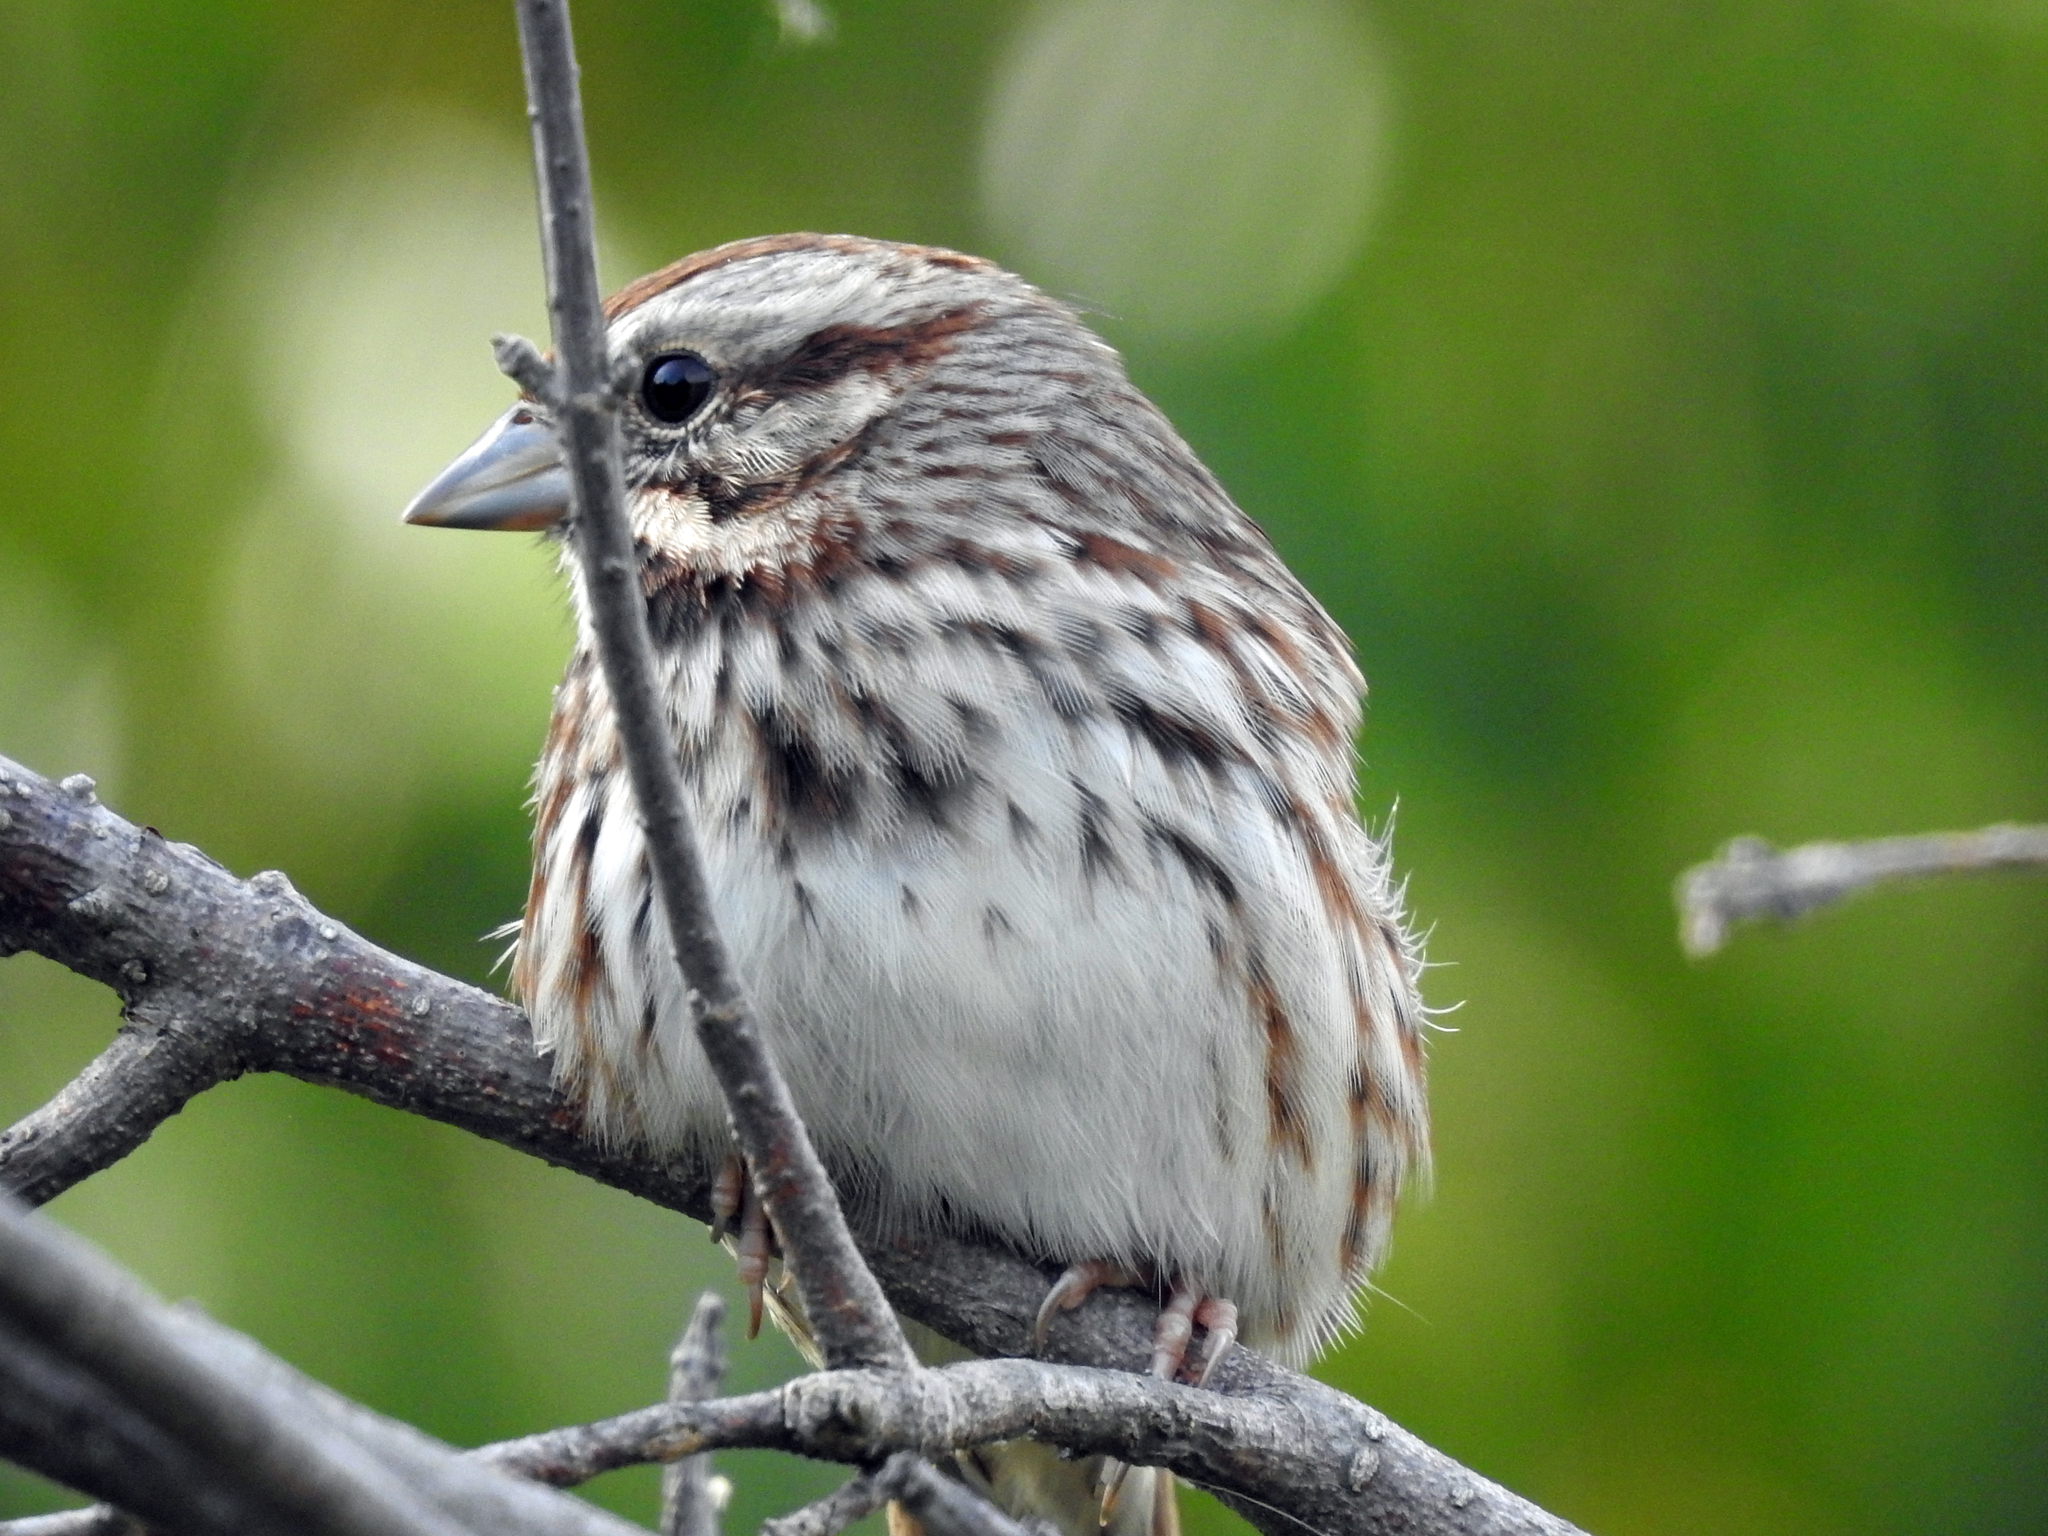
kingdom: Animalia
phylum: Chordata
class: Aves
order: Passeriformes
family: Passerellidae
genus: Melospiza
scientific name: Melospiza melodia
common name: Song sparrow
